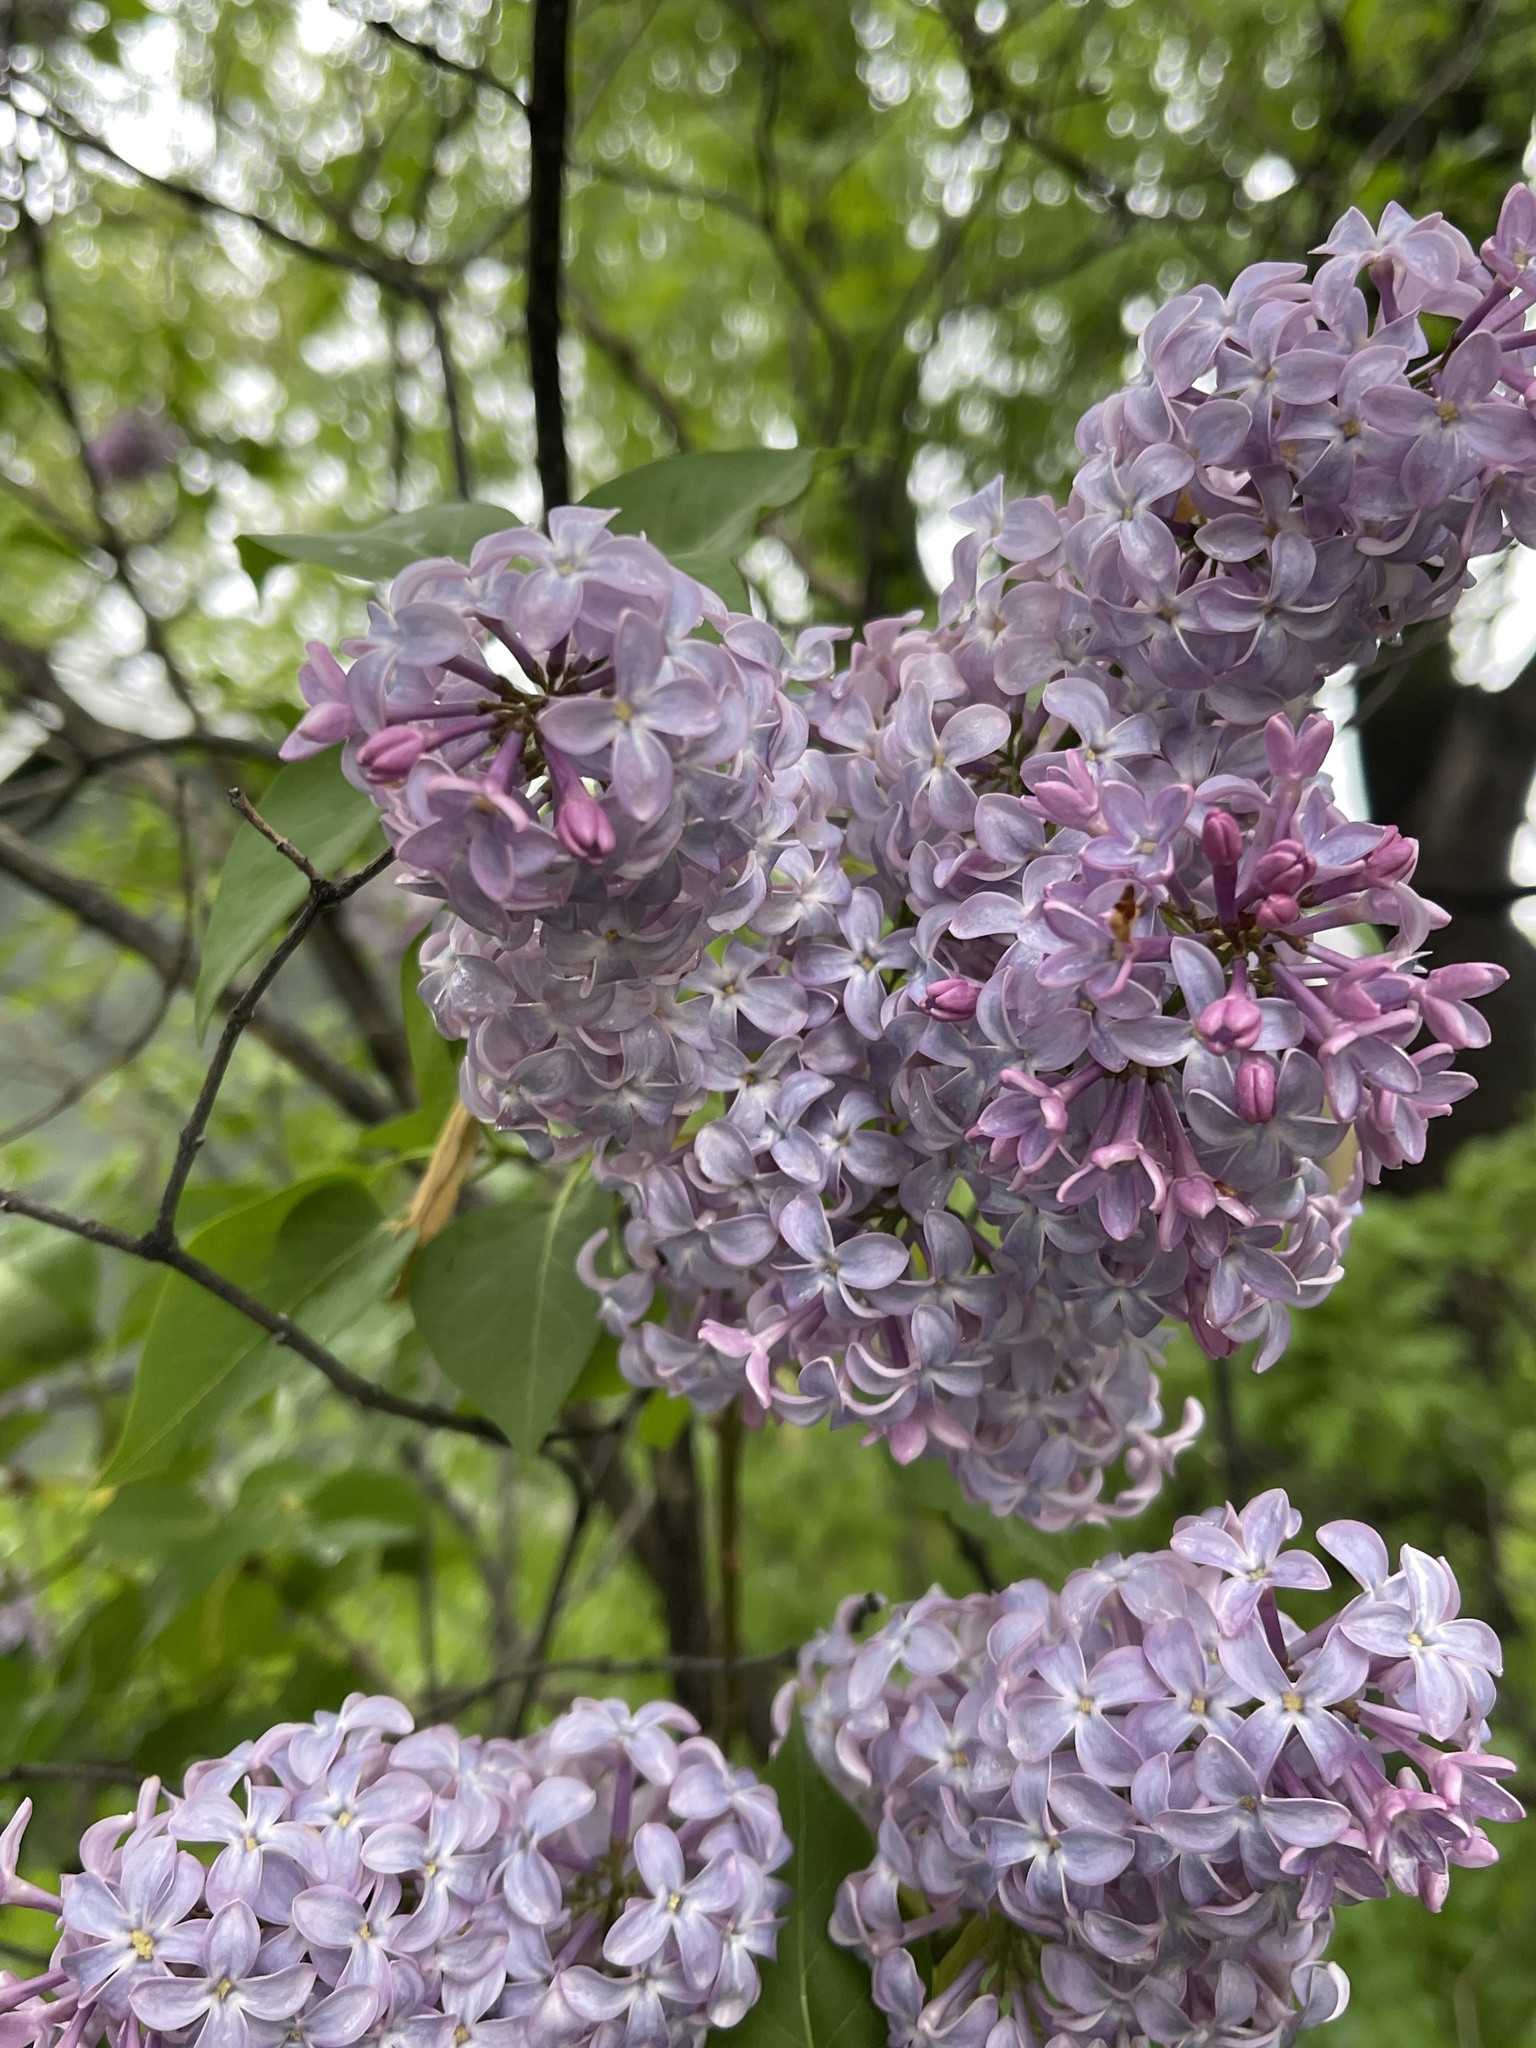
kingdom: Plantae
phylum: Tracheophyta
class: Magnoliopsida
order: Lamiales
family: Oleaceae
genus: Syringa
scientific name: Syringa vulgaris
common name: Common lilac
